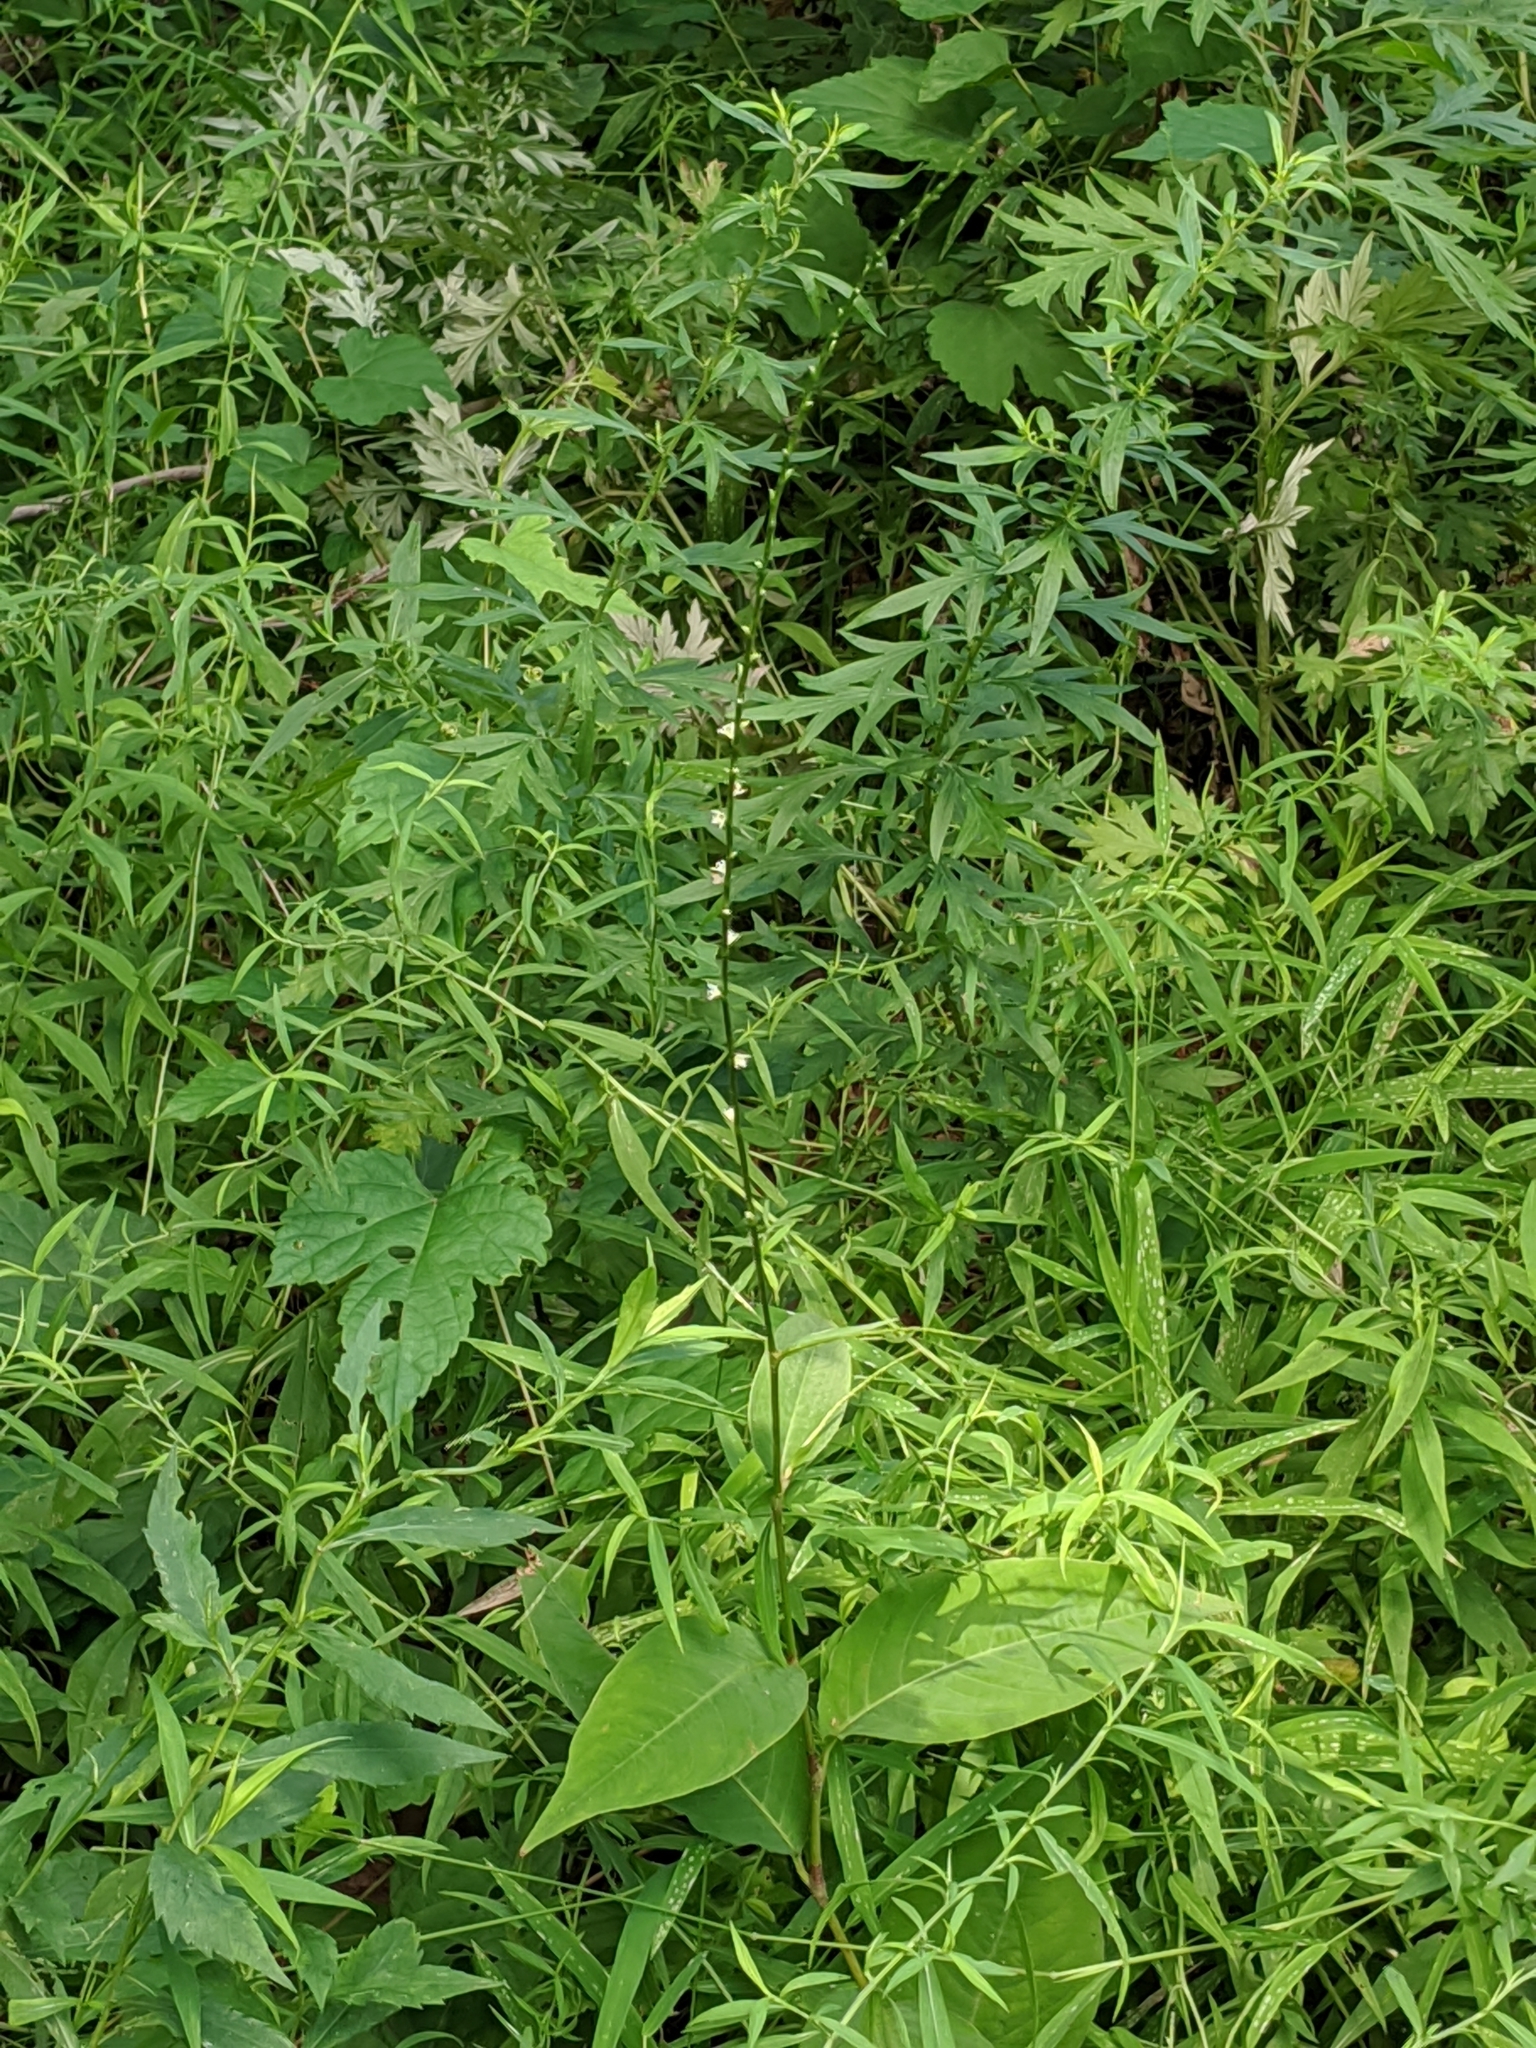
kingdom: Plantae
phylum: Tracheophyta
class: Magnoliopsida
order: Caryophyllales
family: Polygonaceae
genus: Persicaria
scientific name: Persicaria virginiana
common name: Jumpseed
